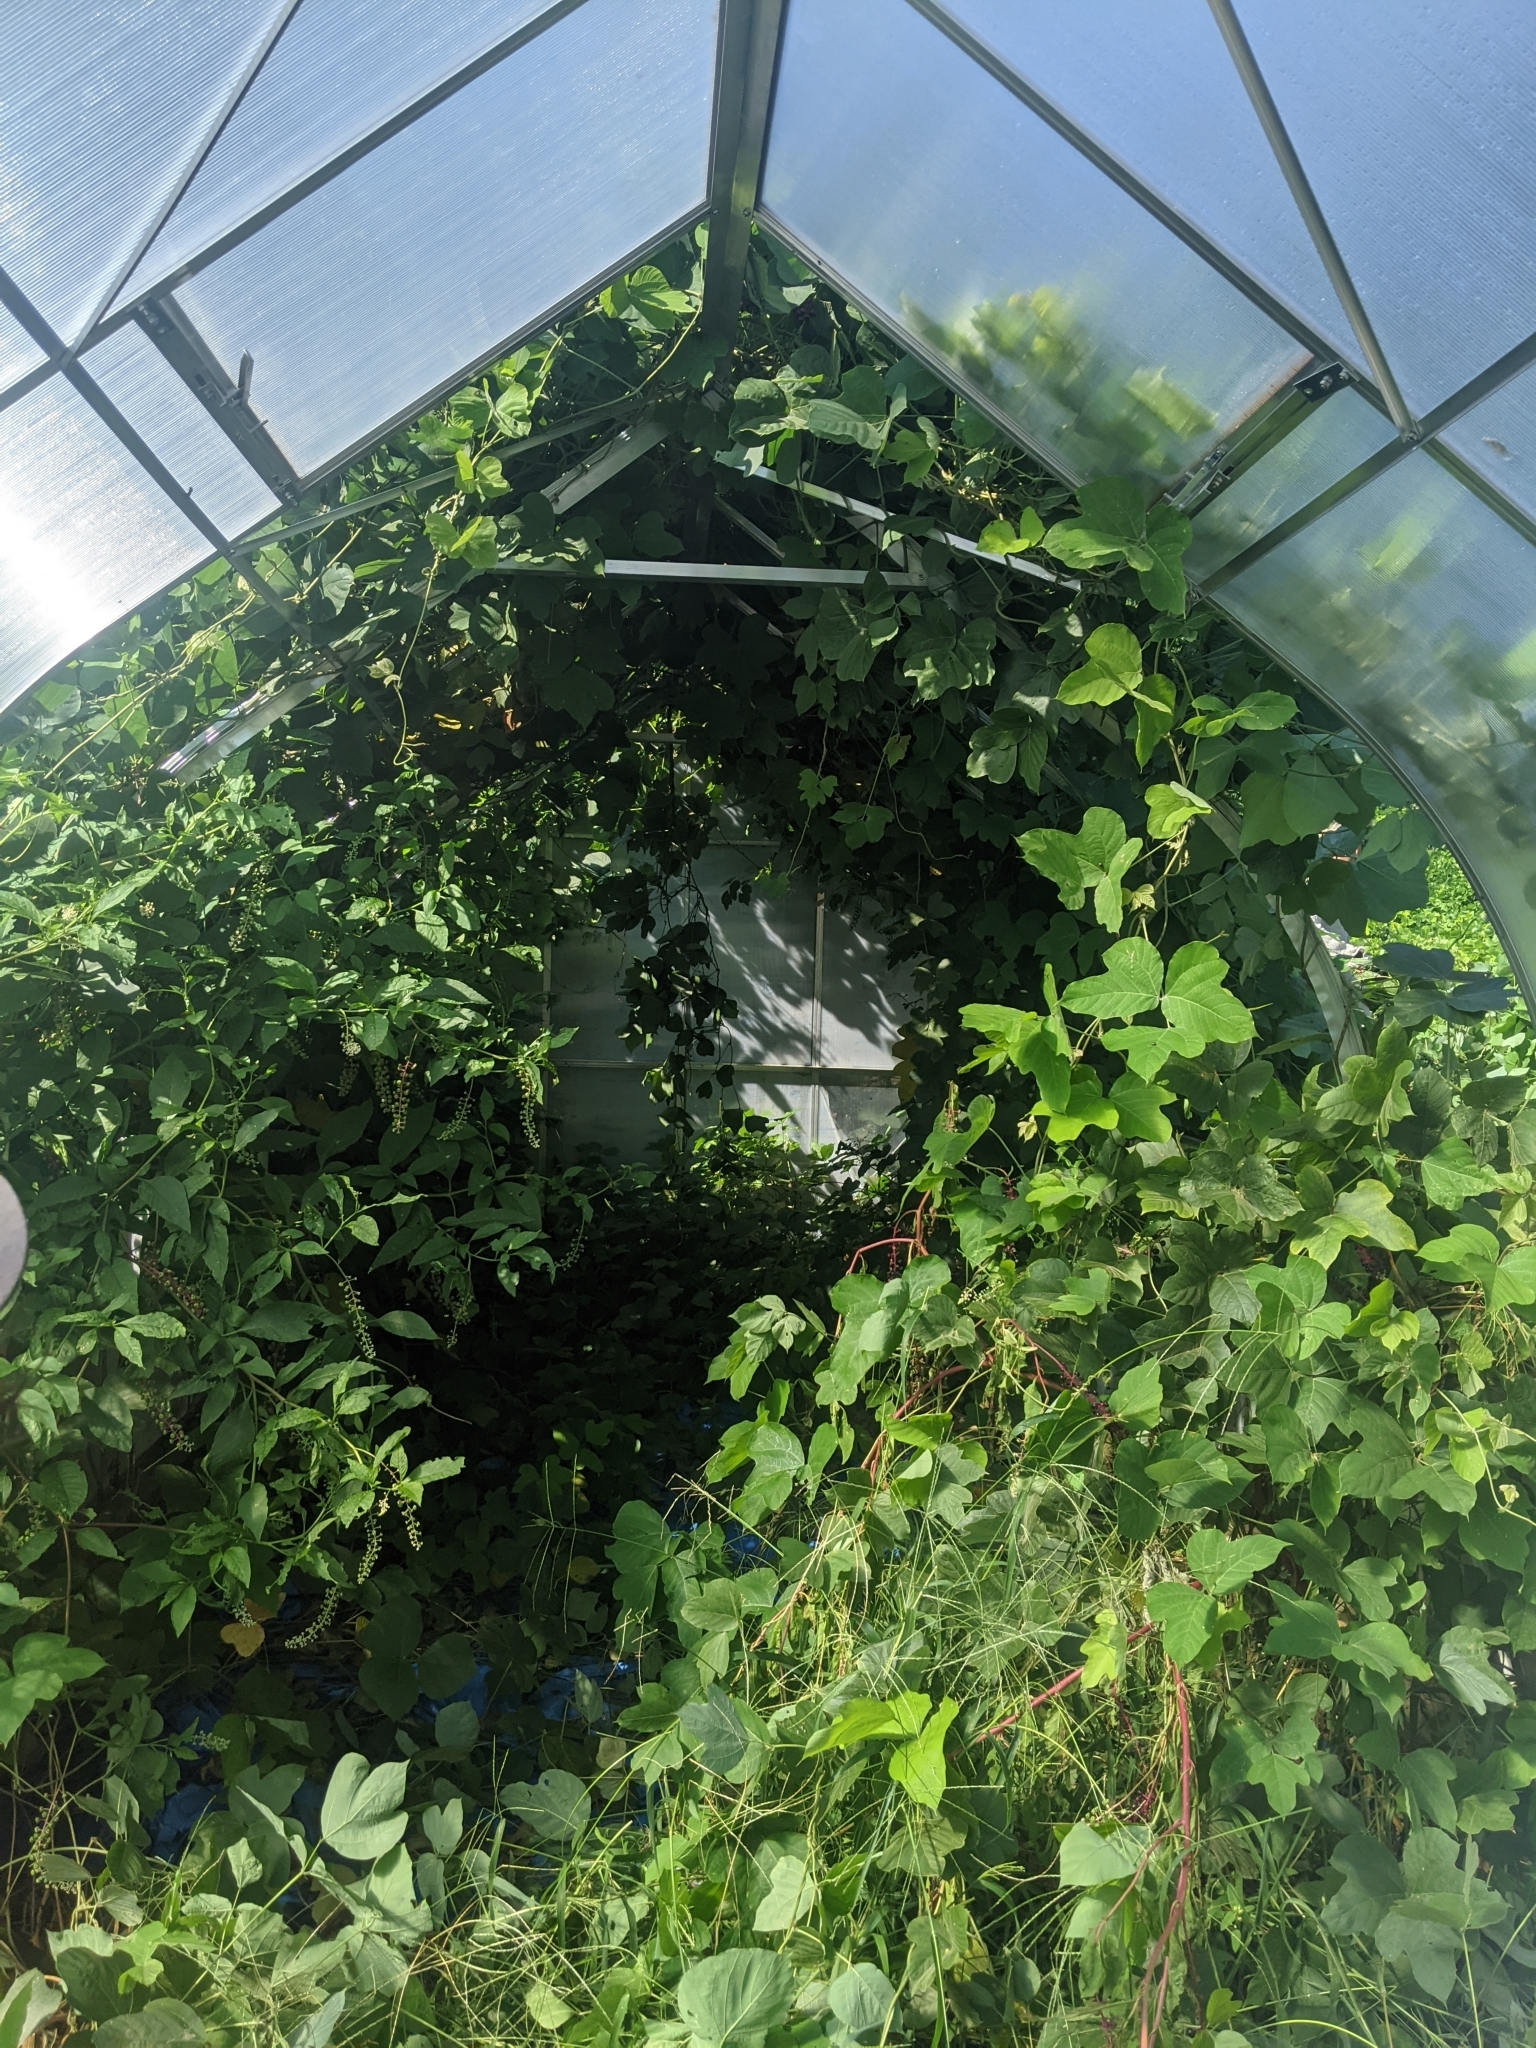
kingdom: Plantae
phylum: Tracheophyta
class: Magnoliopsida
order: Fabales
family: Fabaceae
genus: Pueraria
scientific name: Pueraria montana
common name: Kudzu
